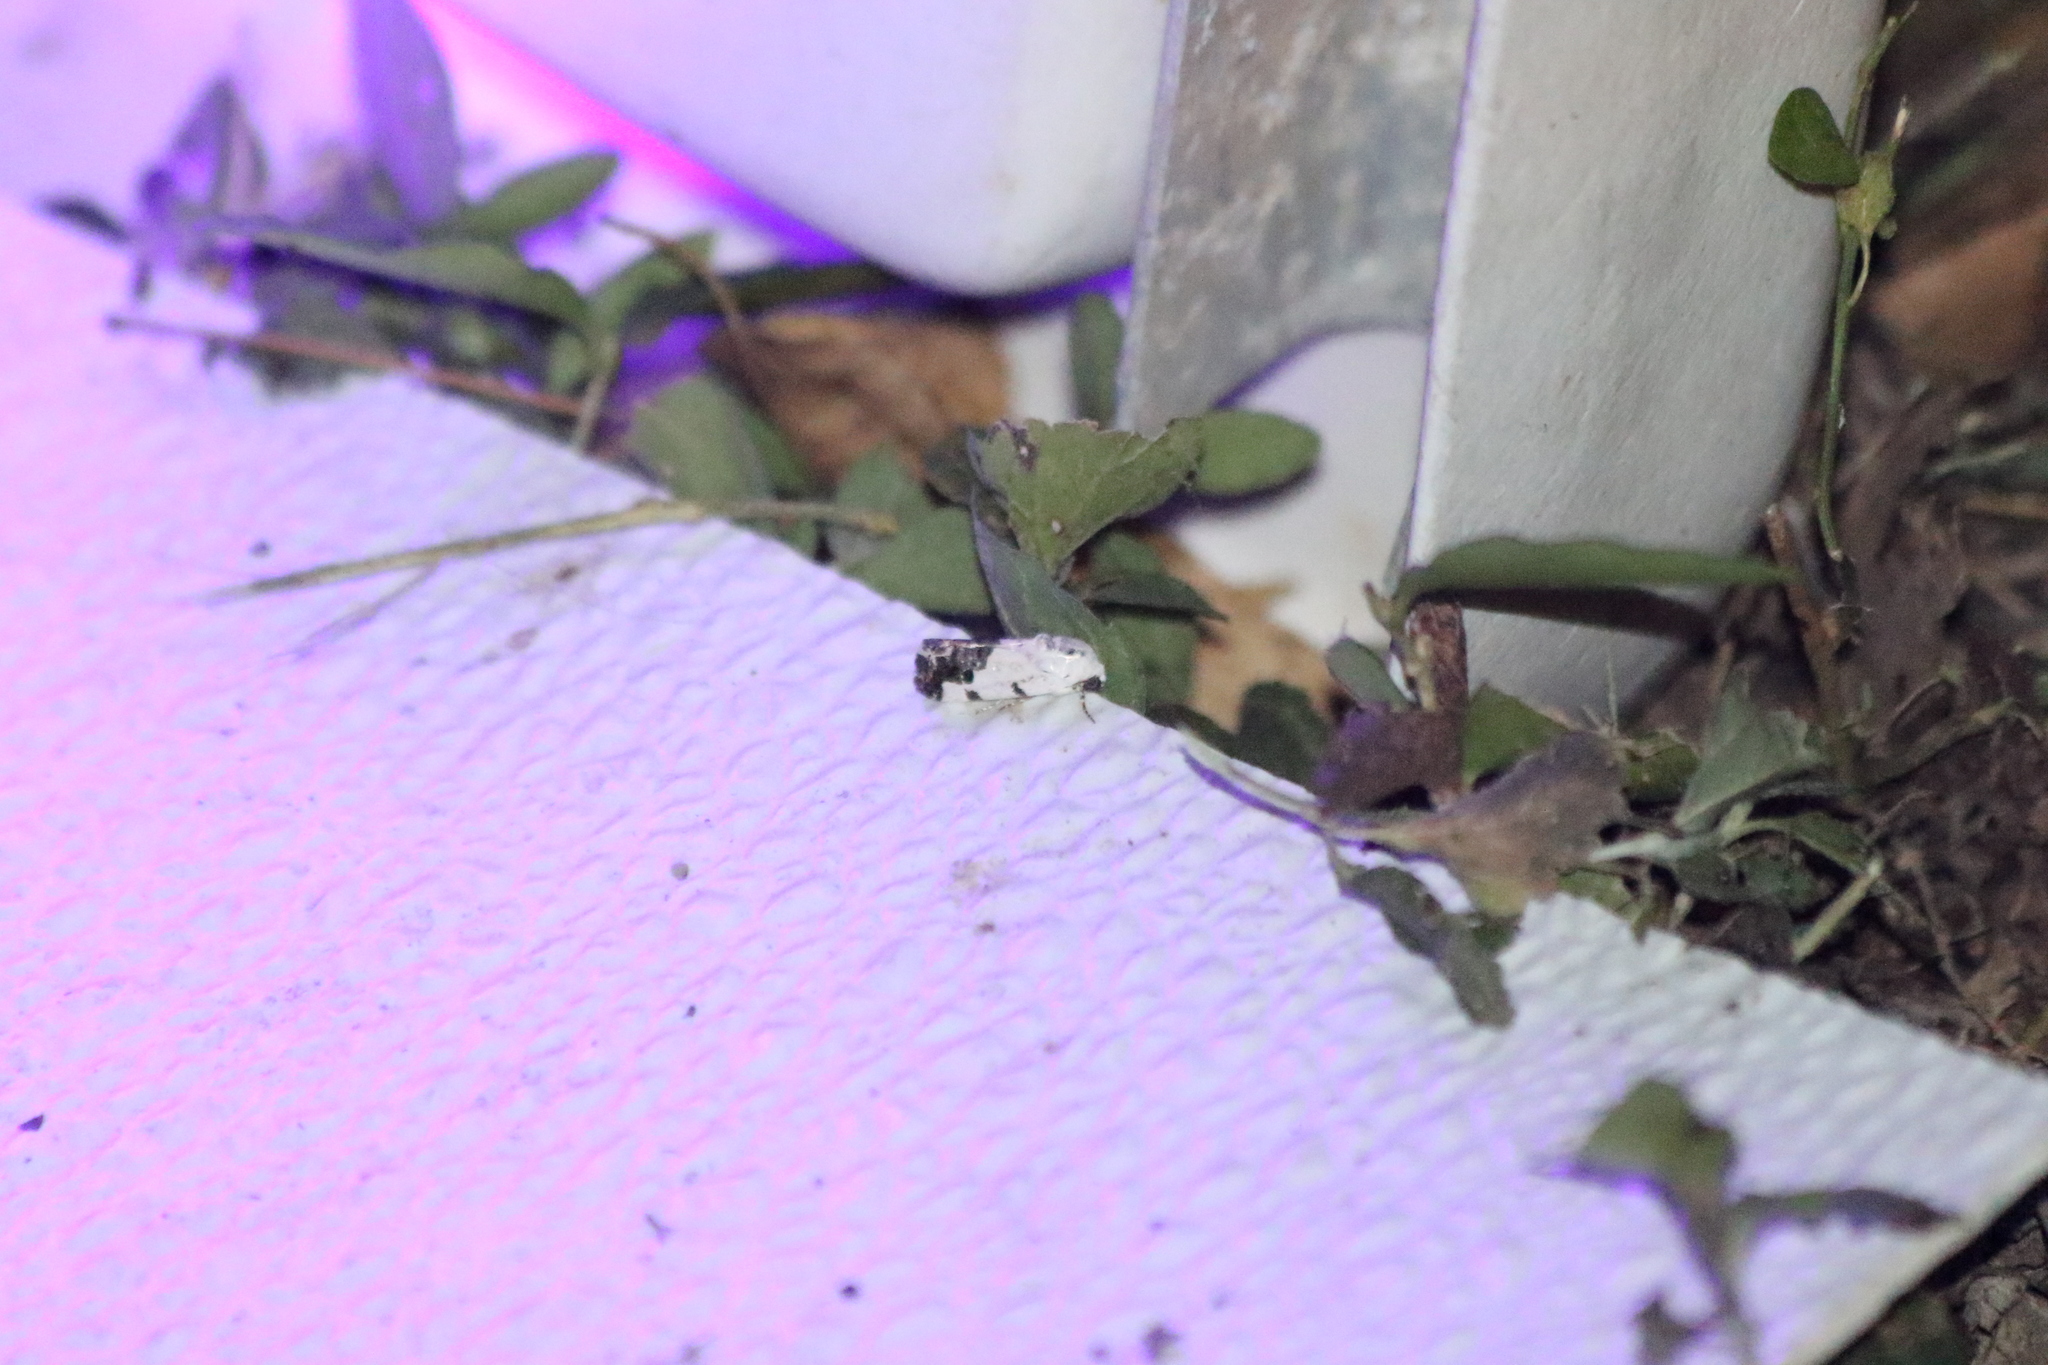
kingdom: Animalia
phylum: Arthropoda
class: Insecta
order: Lepidoptera
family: Noctuidae
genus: Acontia
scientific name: Acontia quadriplaga
